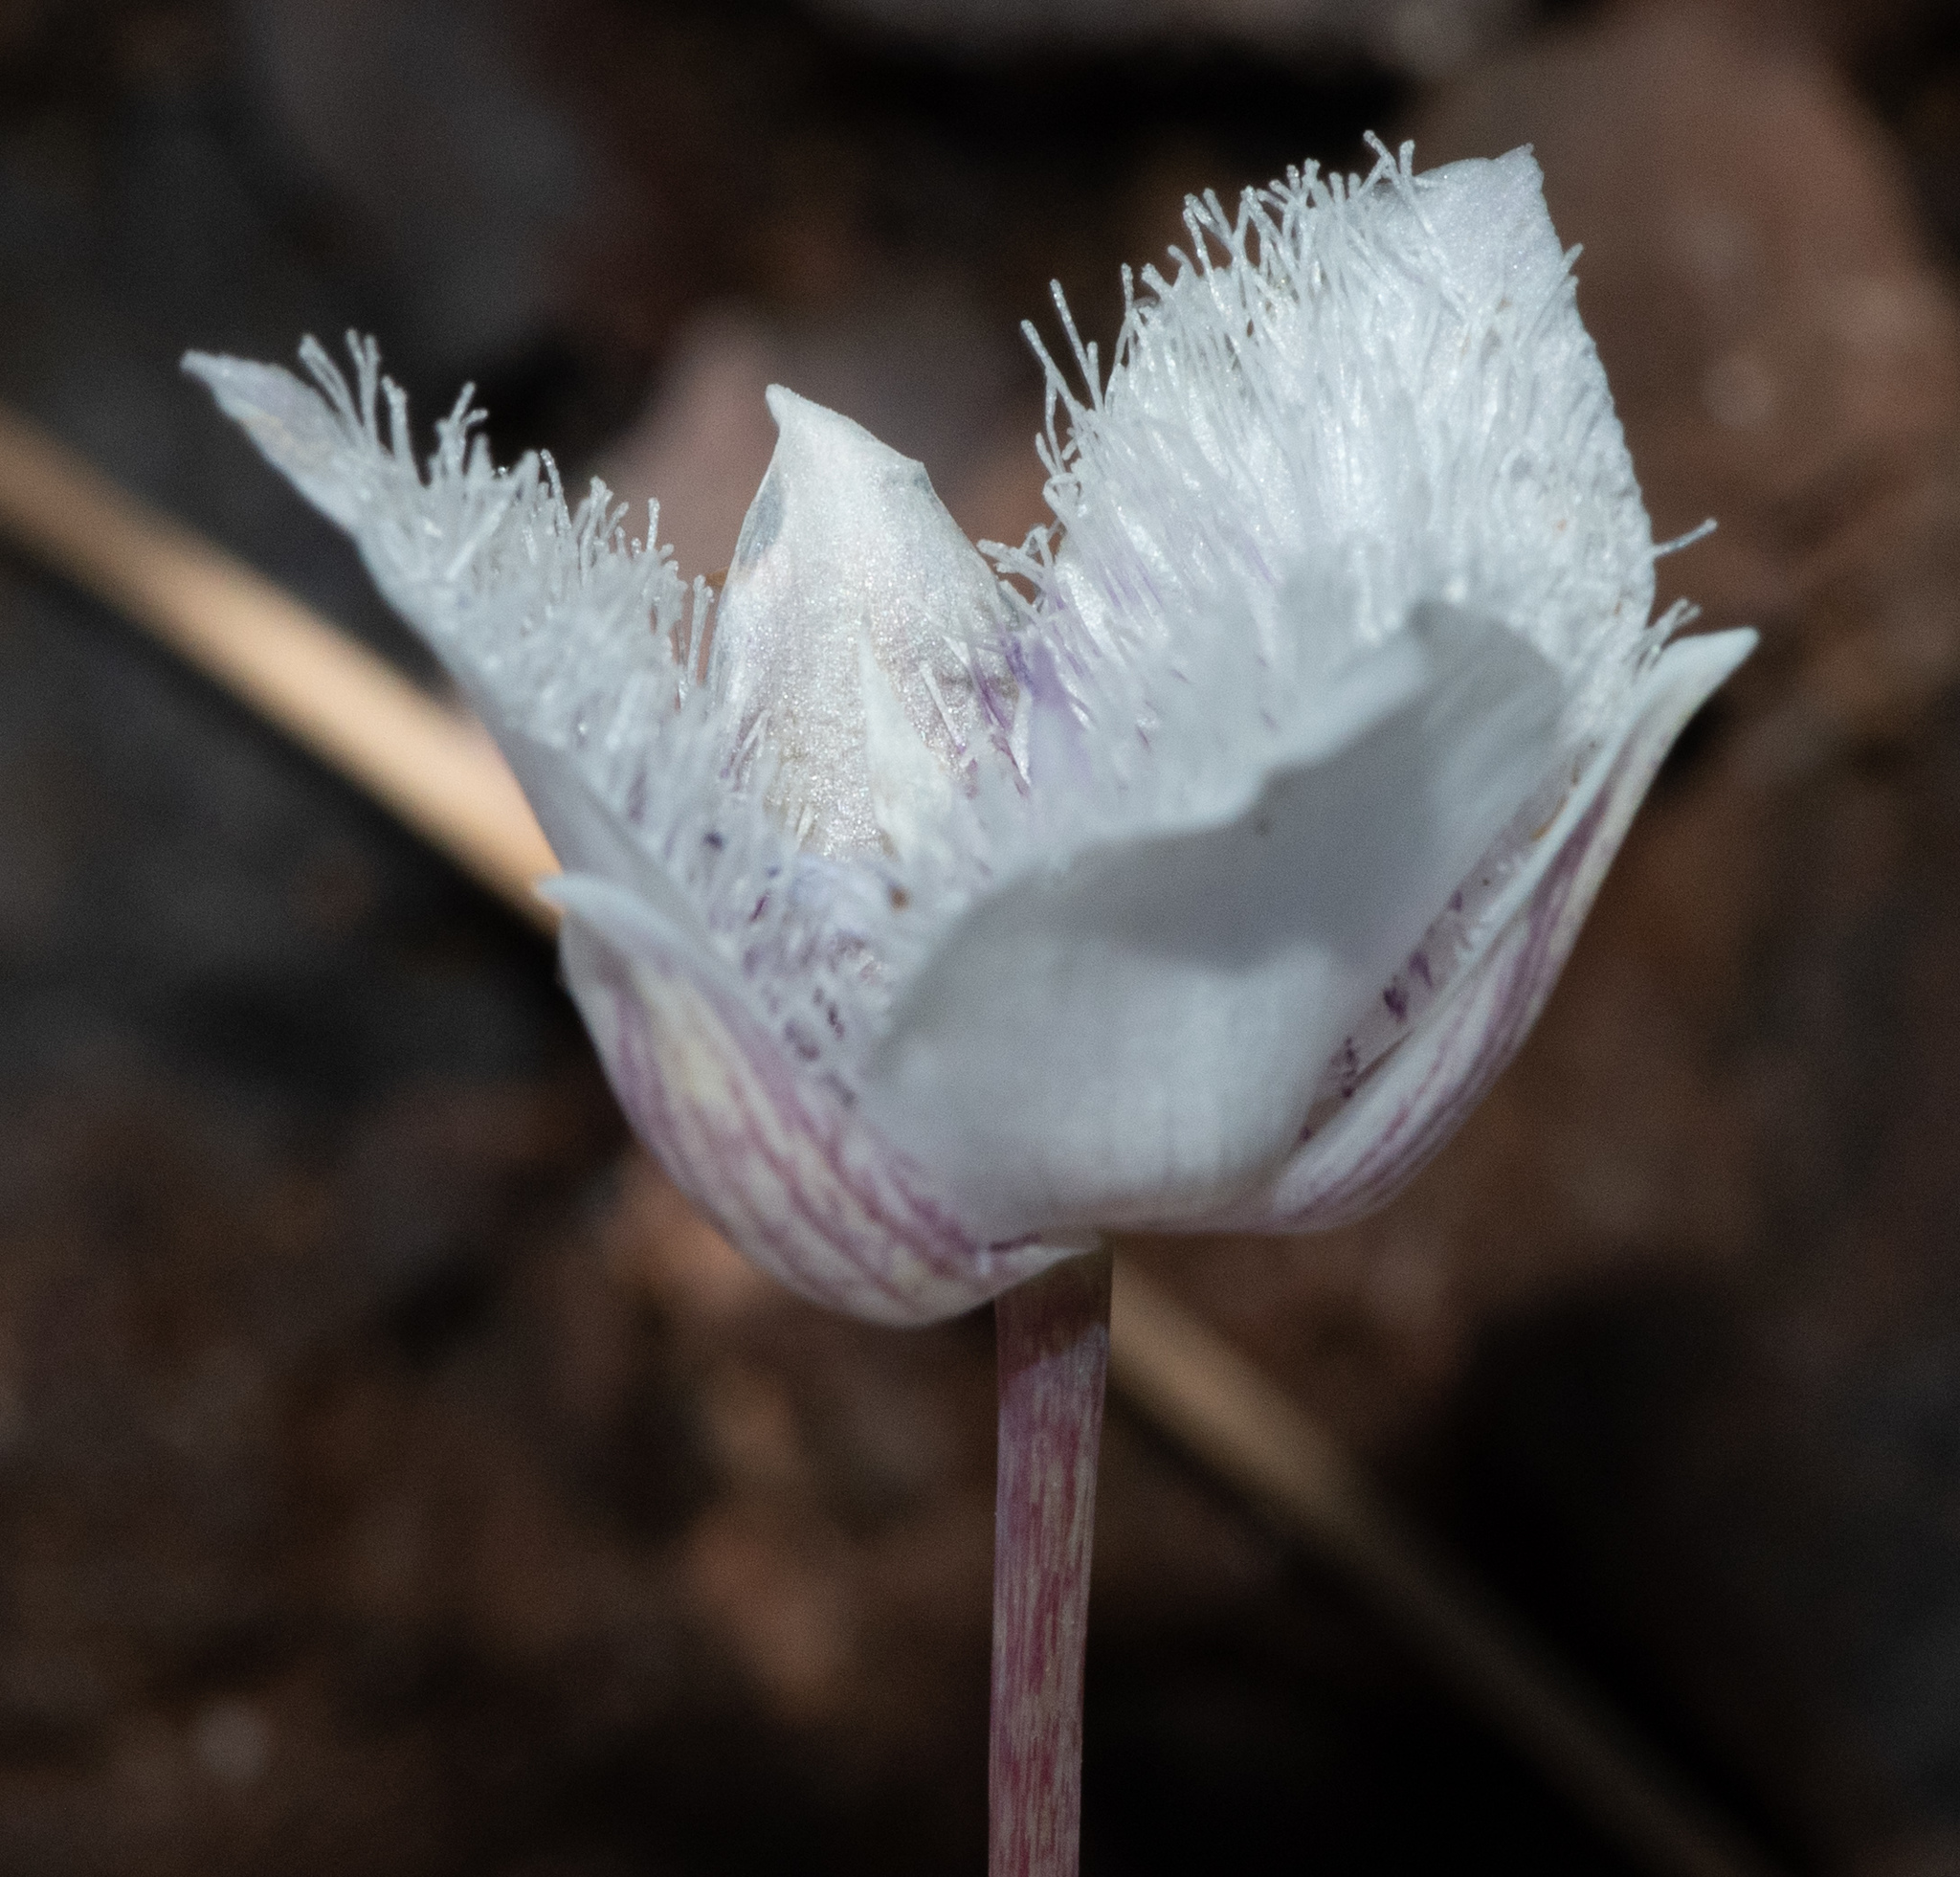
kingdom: Plantae
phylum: Tracheophyta
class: Liliopsida
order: Liliales
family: Liliaceae
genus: Calochortus
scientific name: Calochortus tolmiei
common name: Pussy-ears
